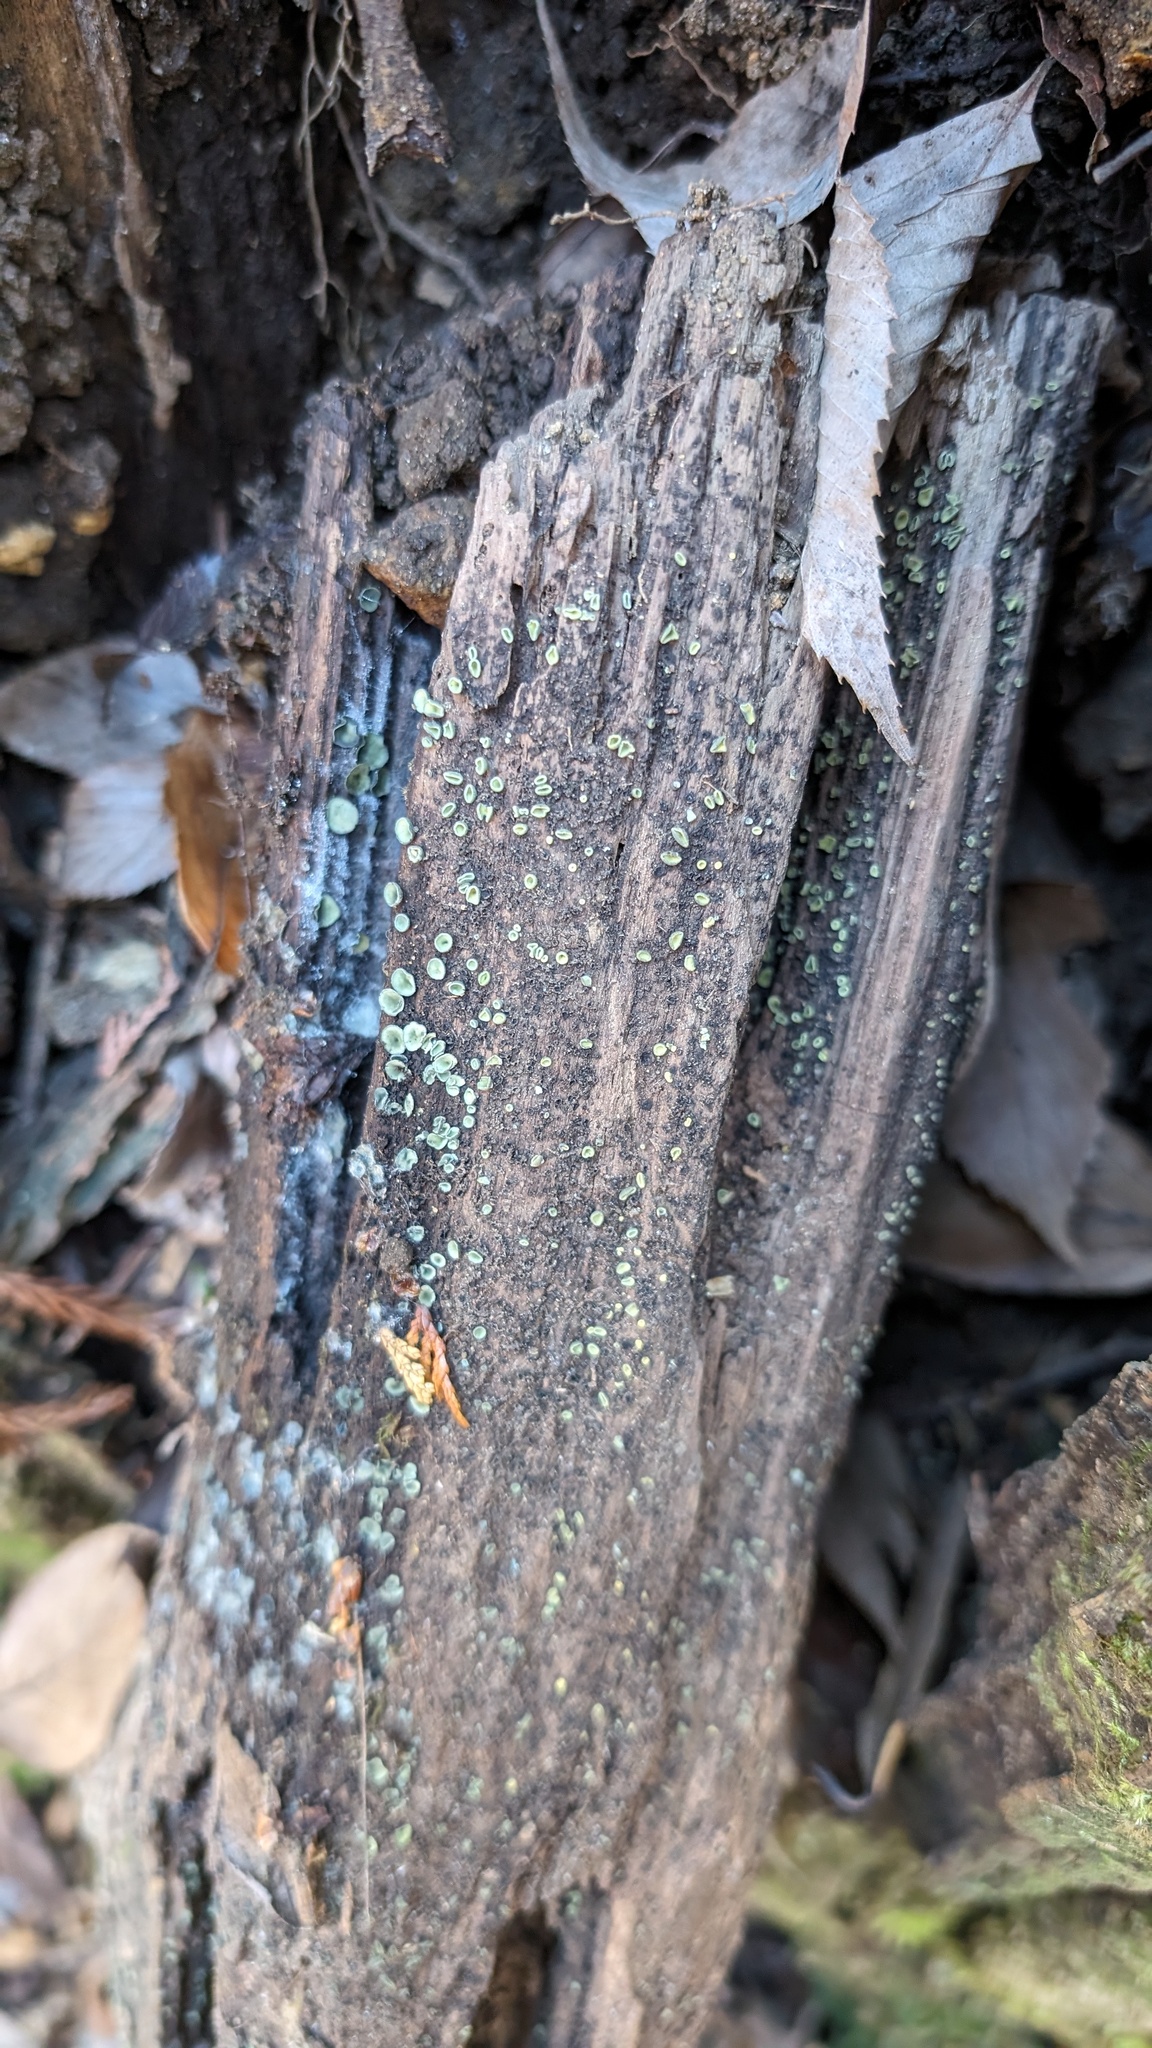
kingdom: Fungi
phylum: Ascomycota
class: Leotiomycetes
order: Helotiales
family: Chlorospleniaceae
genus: Chlorosplenium
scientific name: Chlorosplenium chlora
